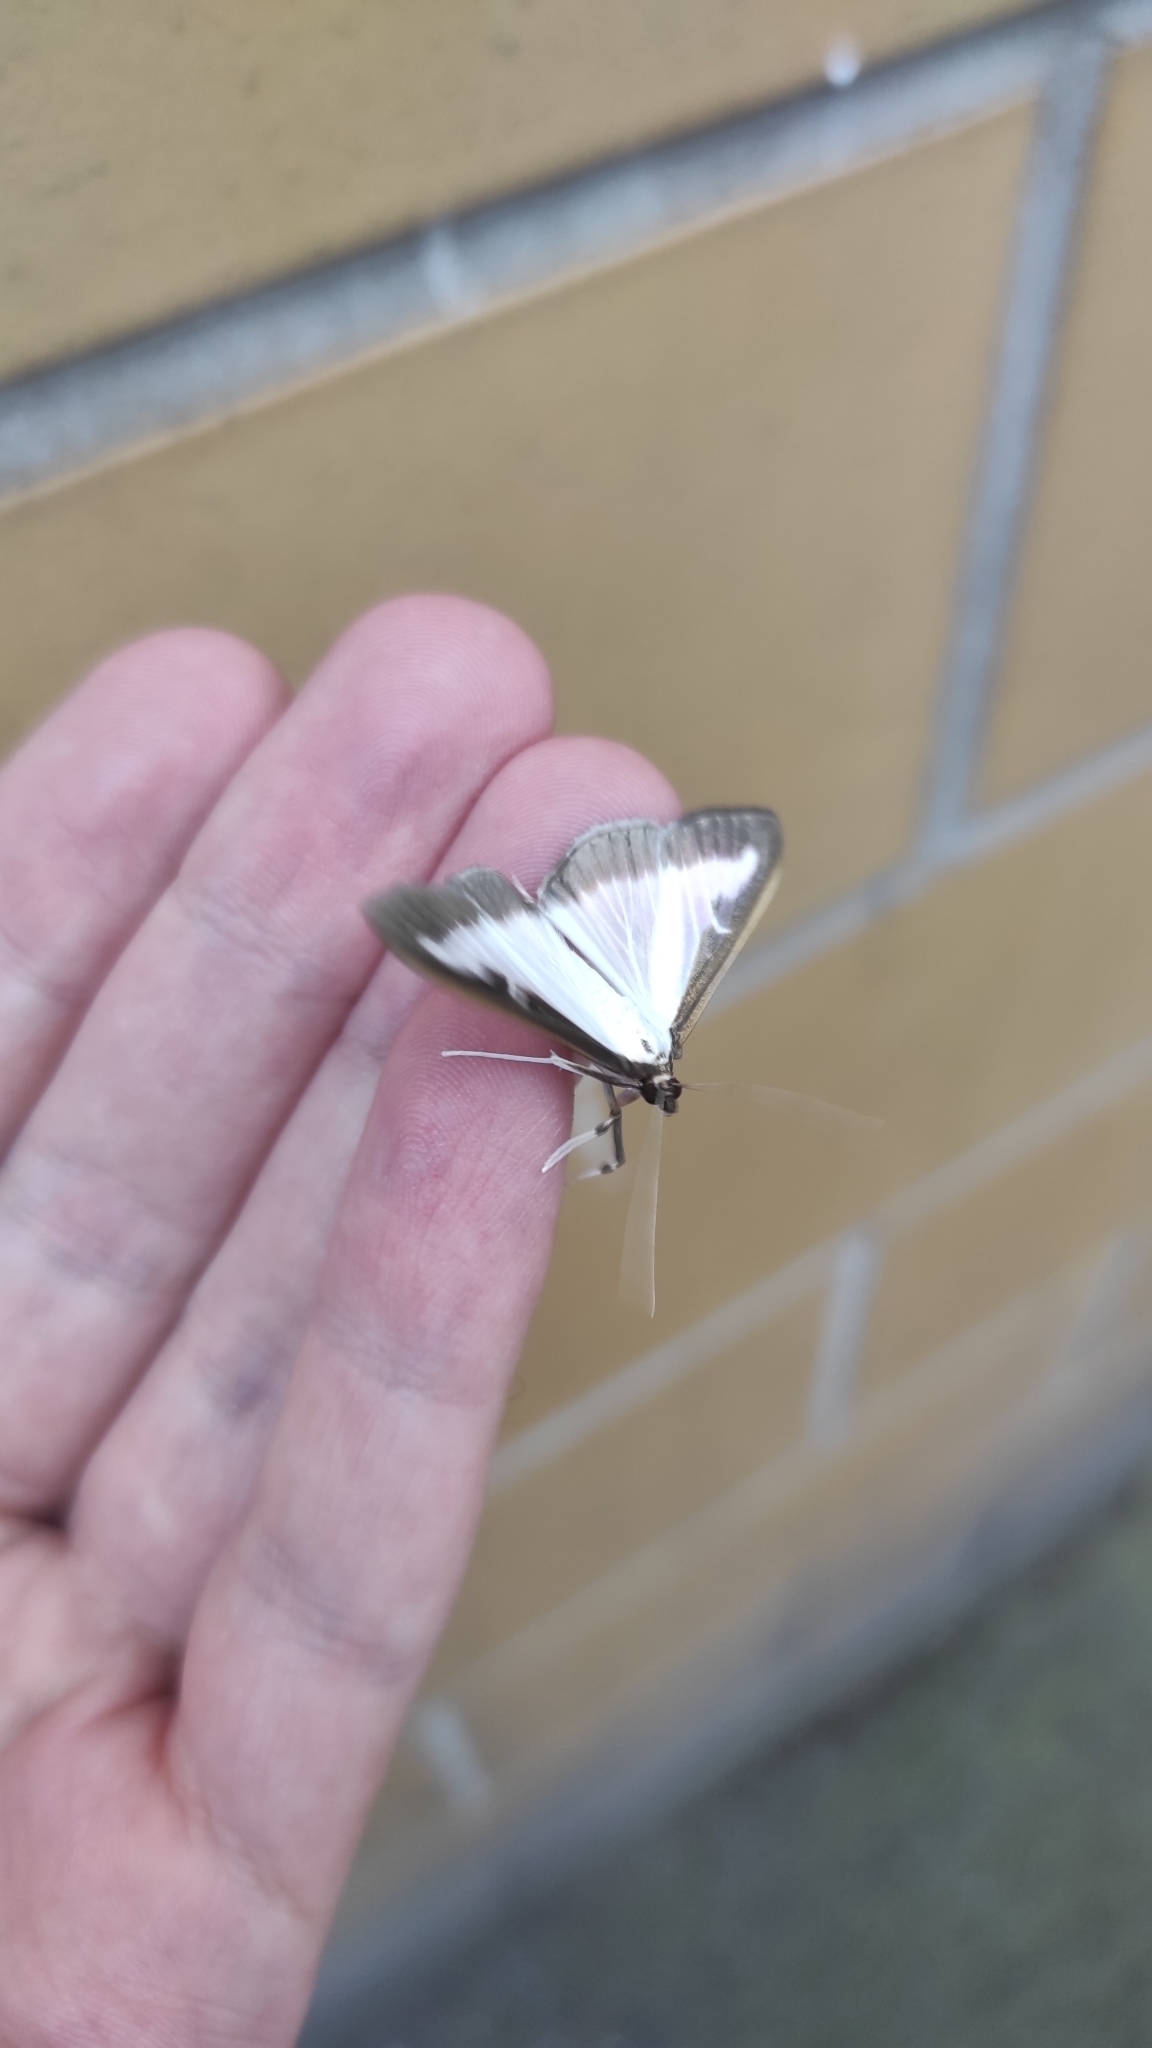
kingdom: Animalia
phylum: Arthropoda
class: Insecta
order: Lepidoptera
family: Crambidae
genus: Cydalima
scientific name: Cydalima perspectalis
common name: Box tree moth
